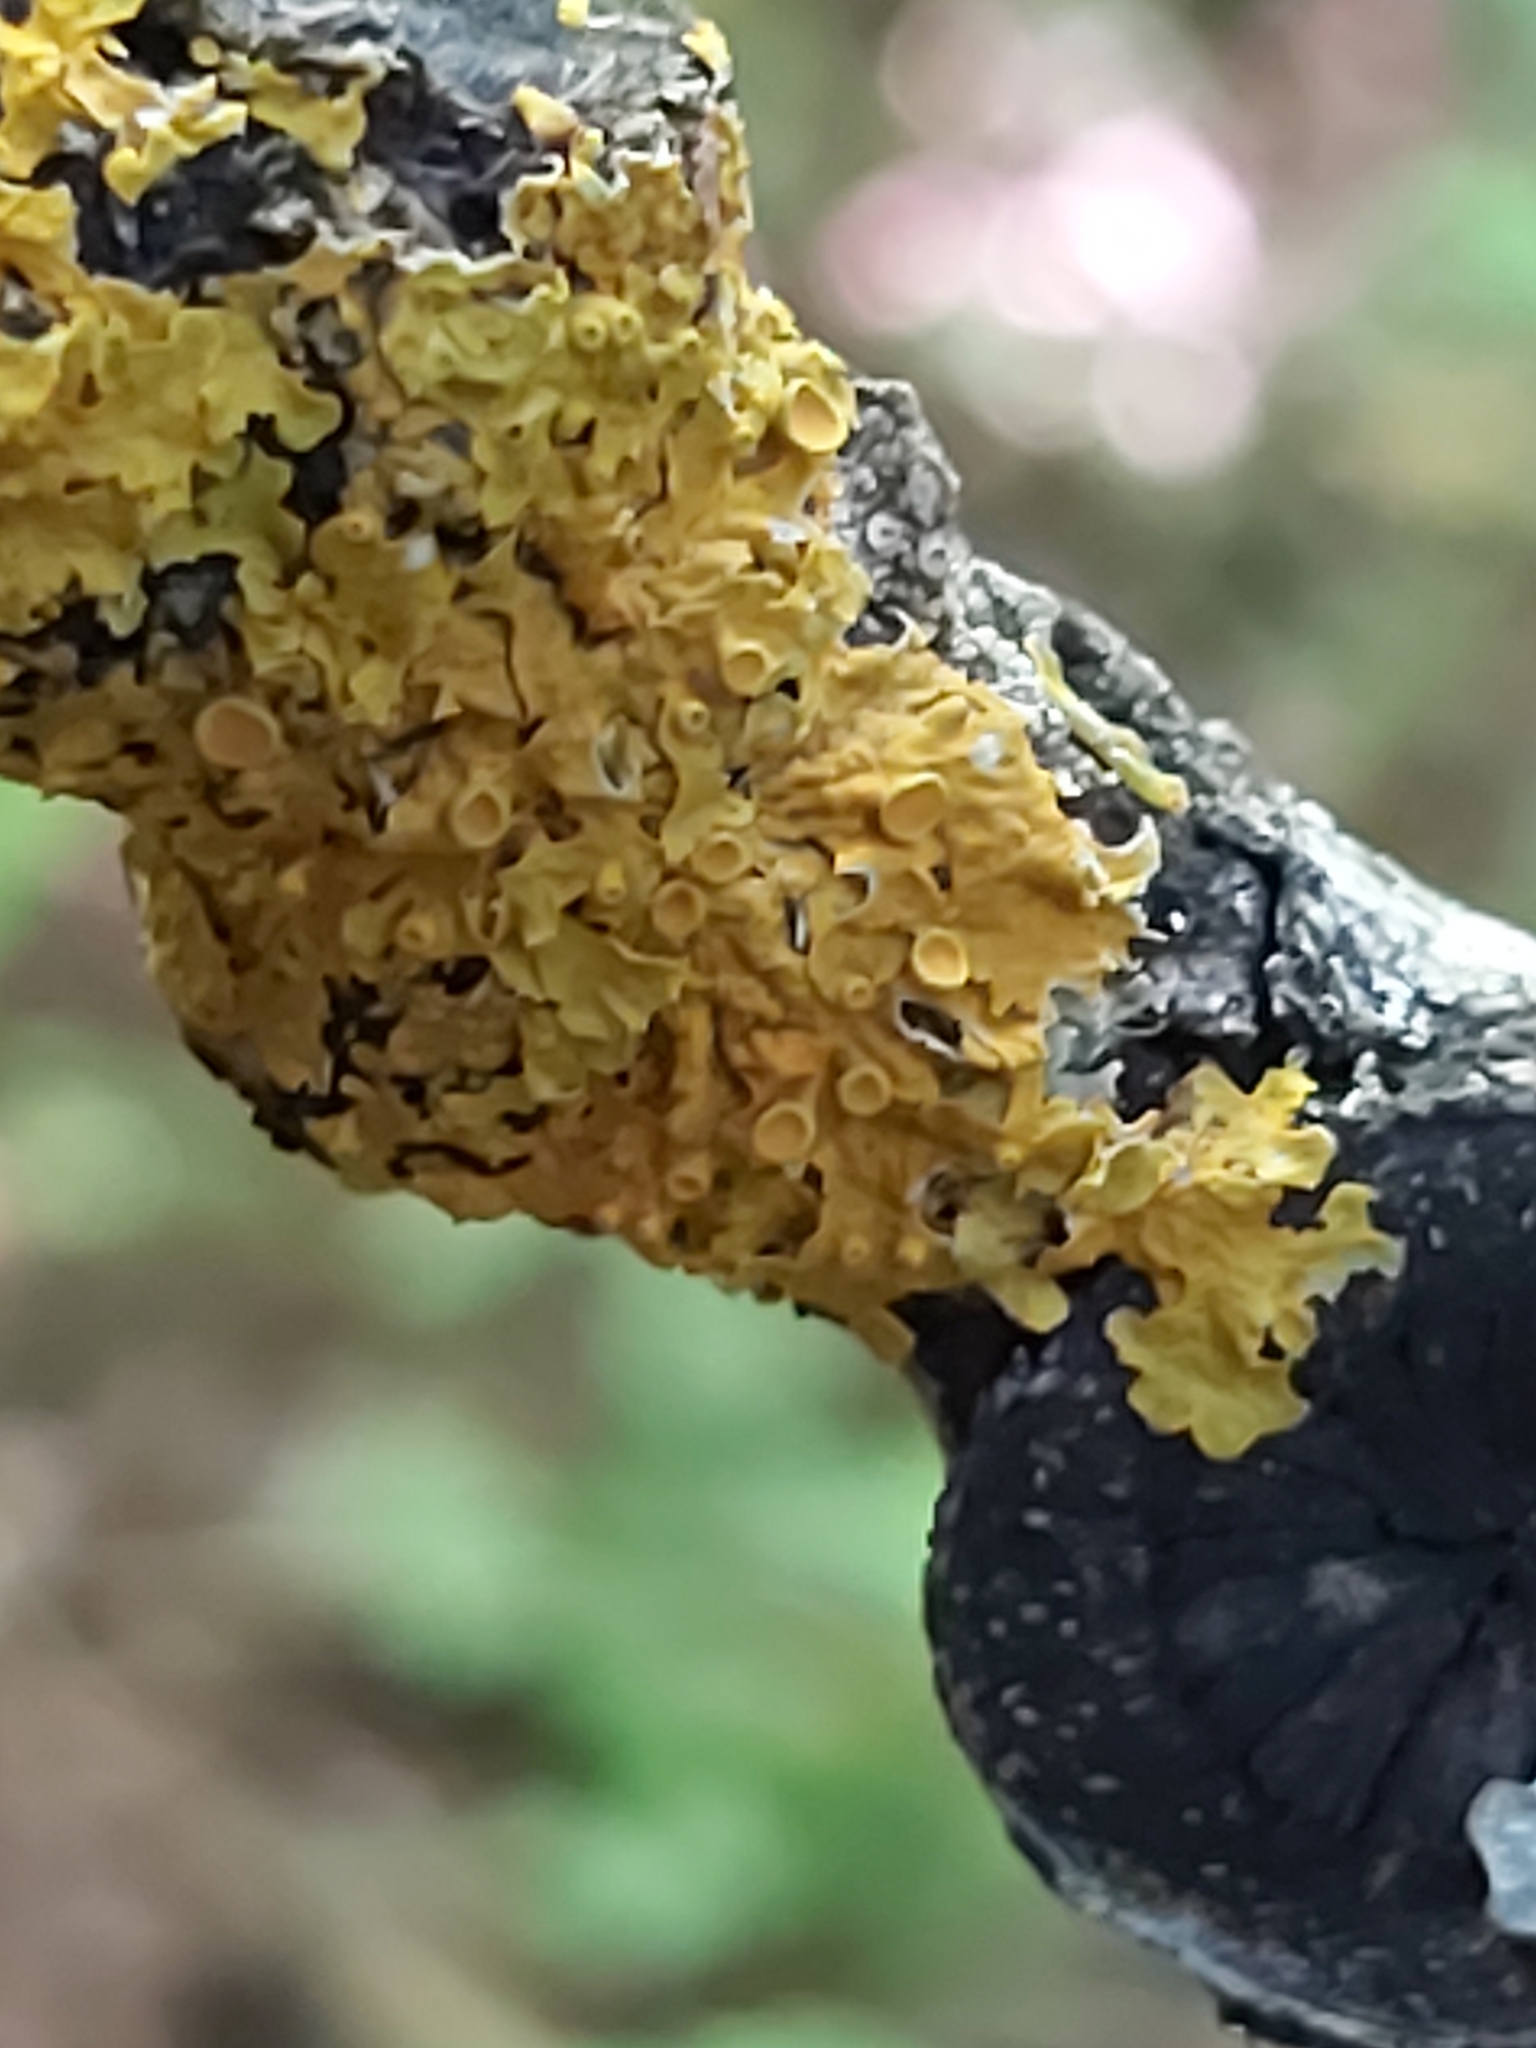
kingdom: Fungi
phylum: Ascomycota
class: Lecanoromycetes
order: Teloschistales
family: Teloschistaceae
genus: Xanthoria
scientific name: Xanthoria parietina
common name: Common orange lichen
